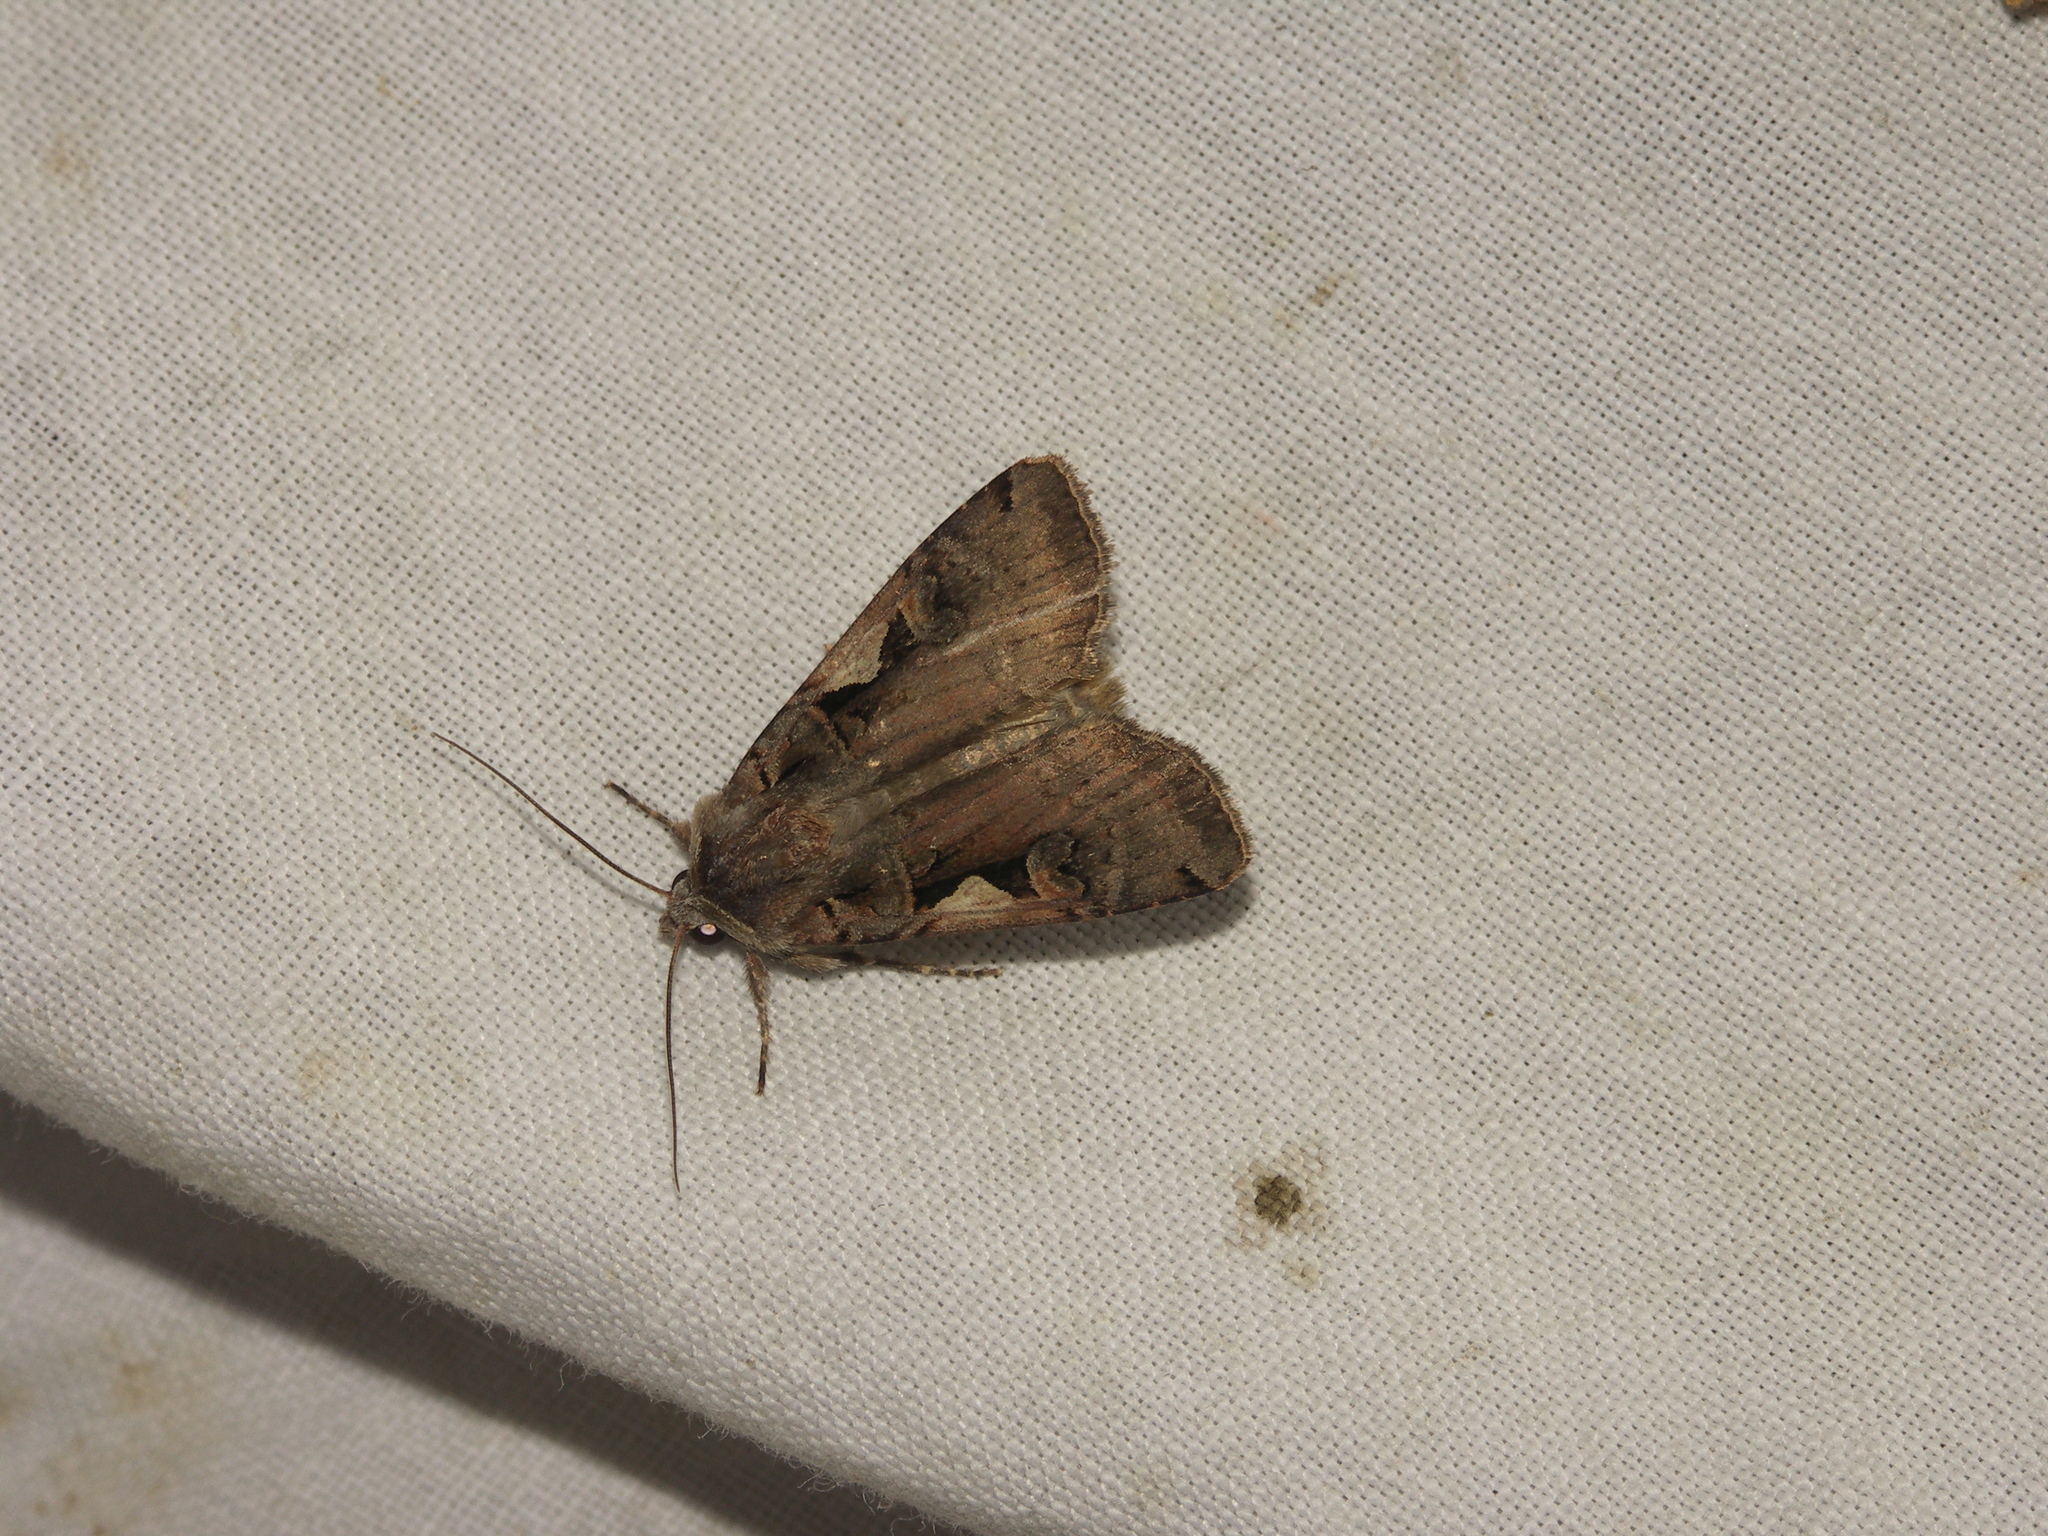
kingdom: Animalia
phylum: Arthropoda
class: Insecta
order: Lepidoptera
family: Noctuidae
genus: Xestia
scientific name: Xestia c-nigrum
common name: Setaceous hebrew character
